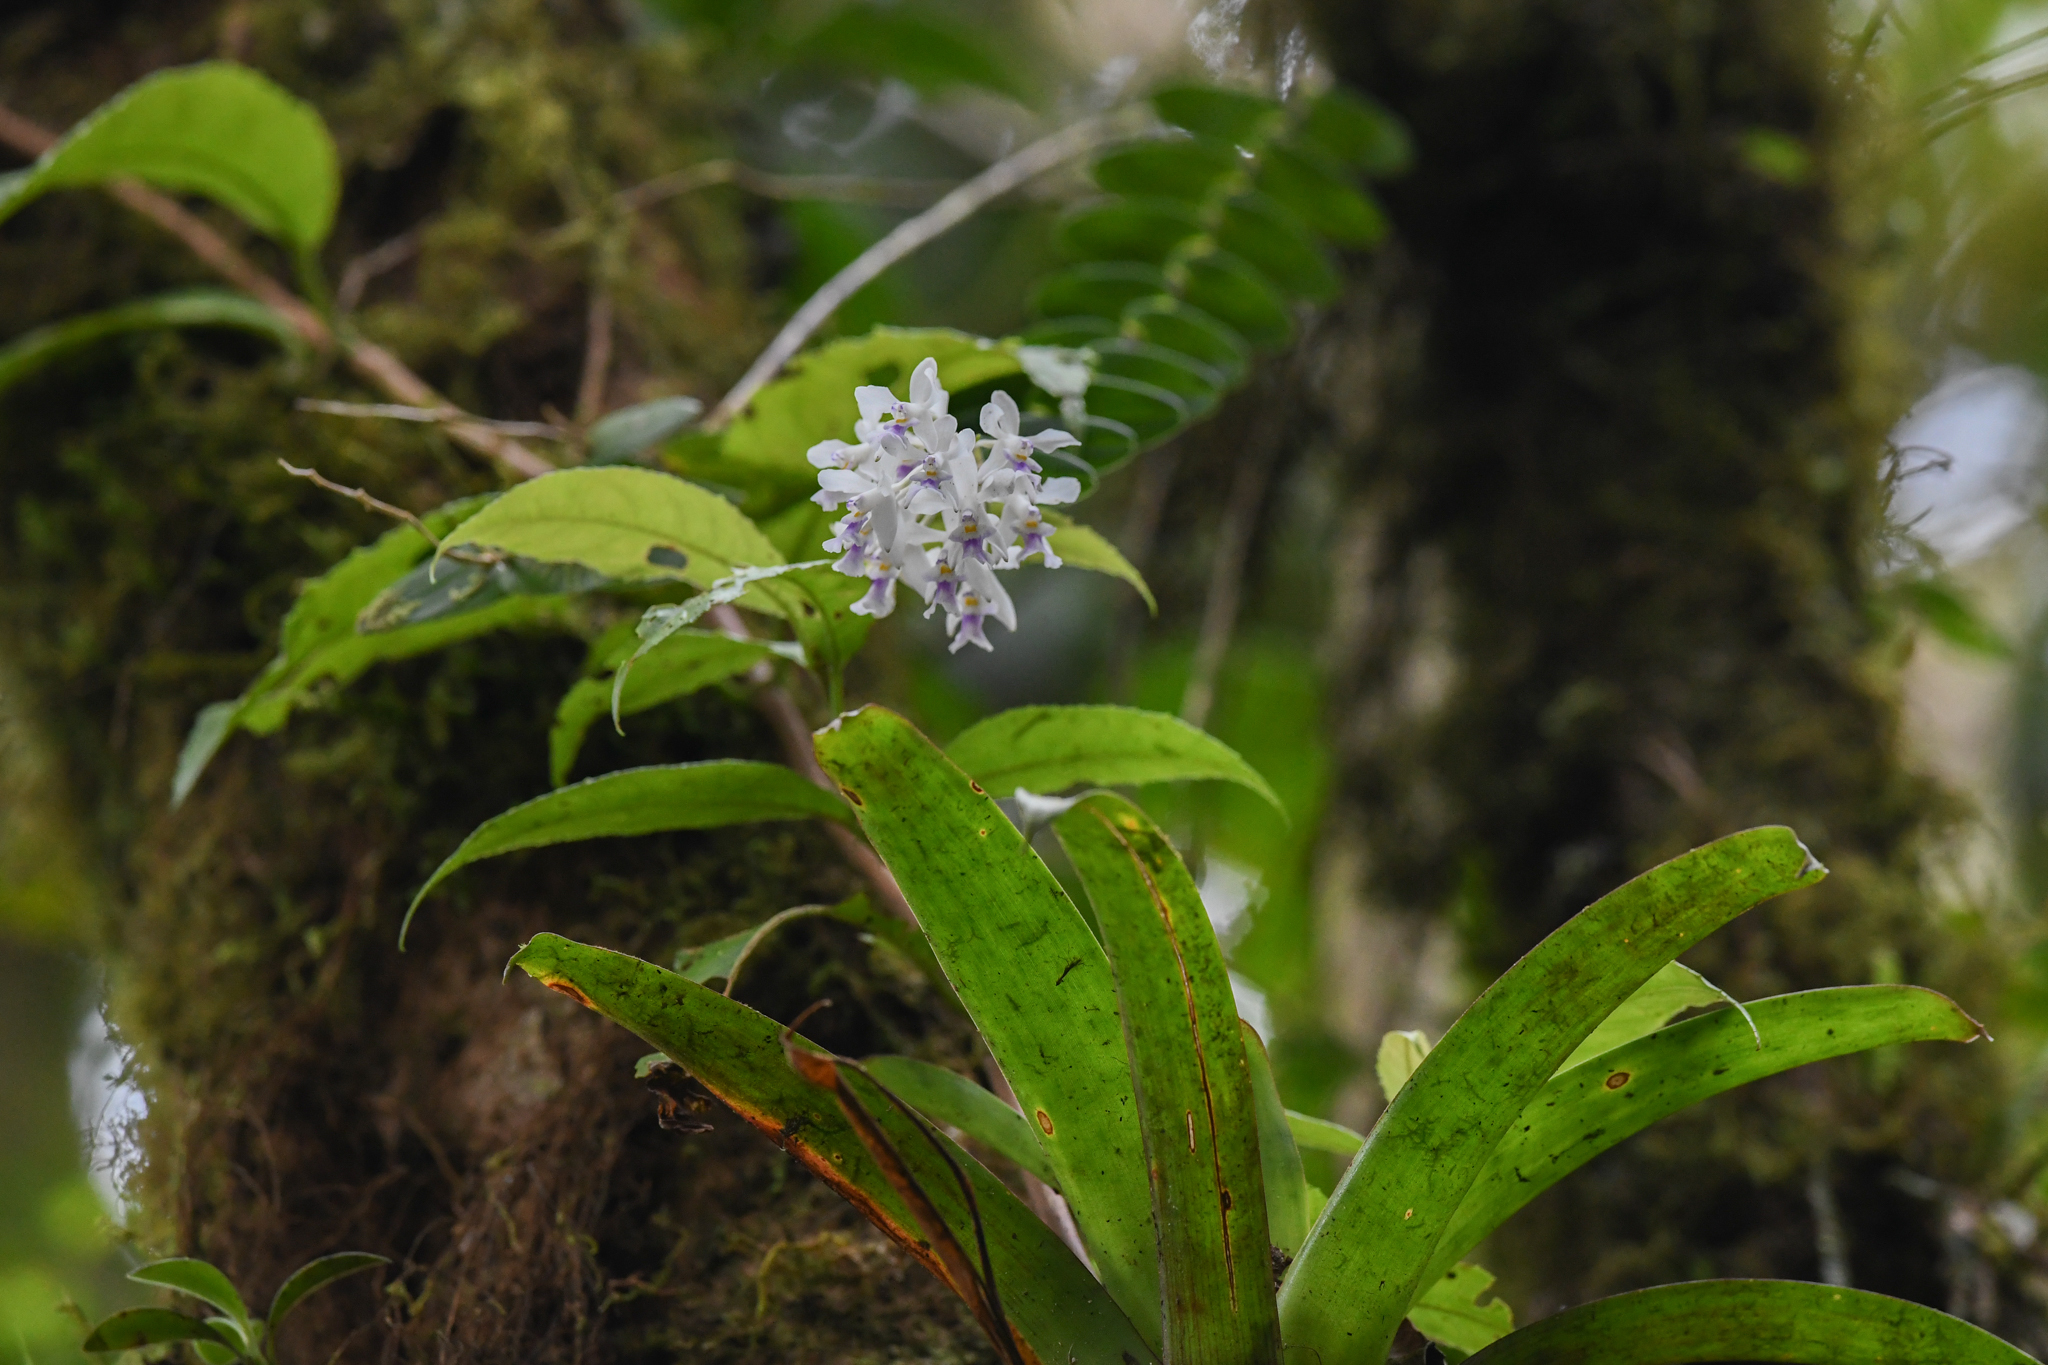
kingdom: Plantae
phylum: Tracheophyta
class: Liliopsida
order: Asparagales
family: Orchidaceae
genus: Epidendrum
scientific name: Epidendrum endresii
